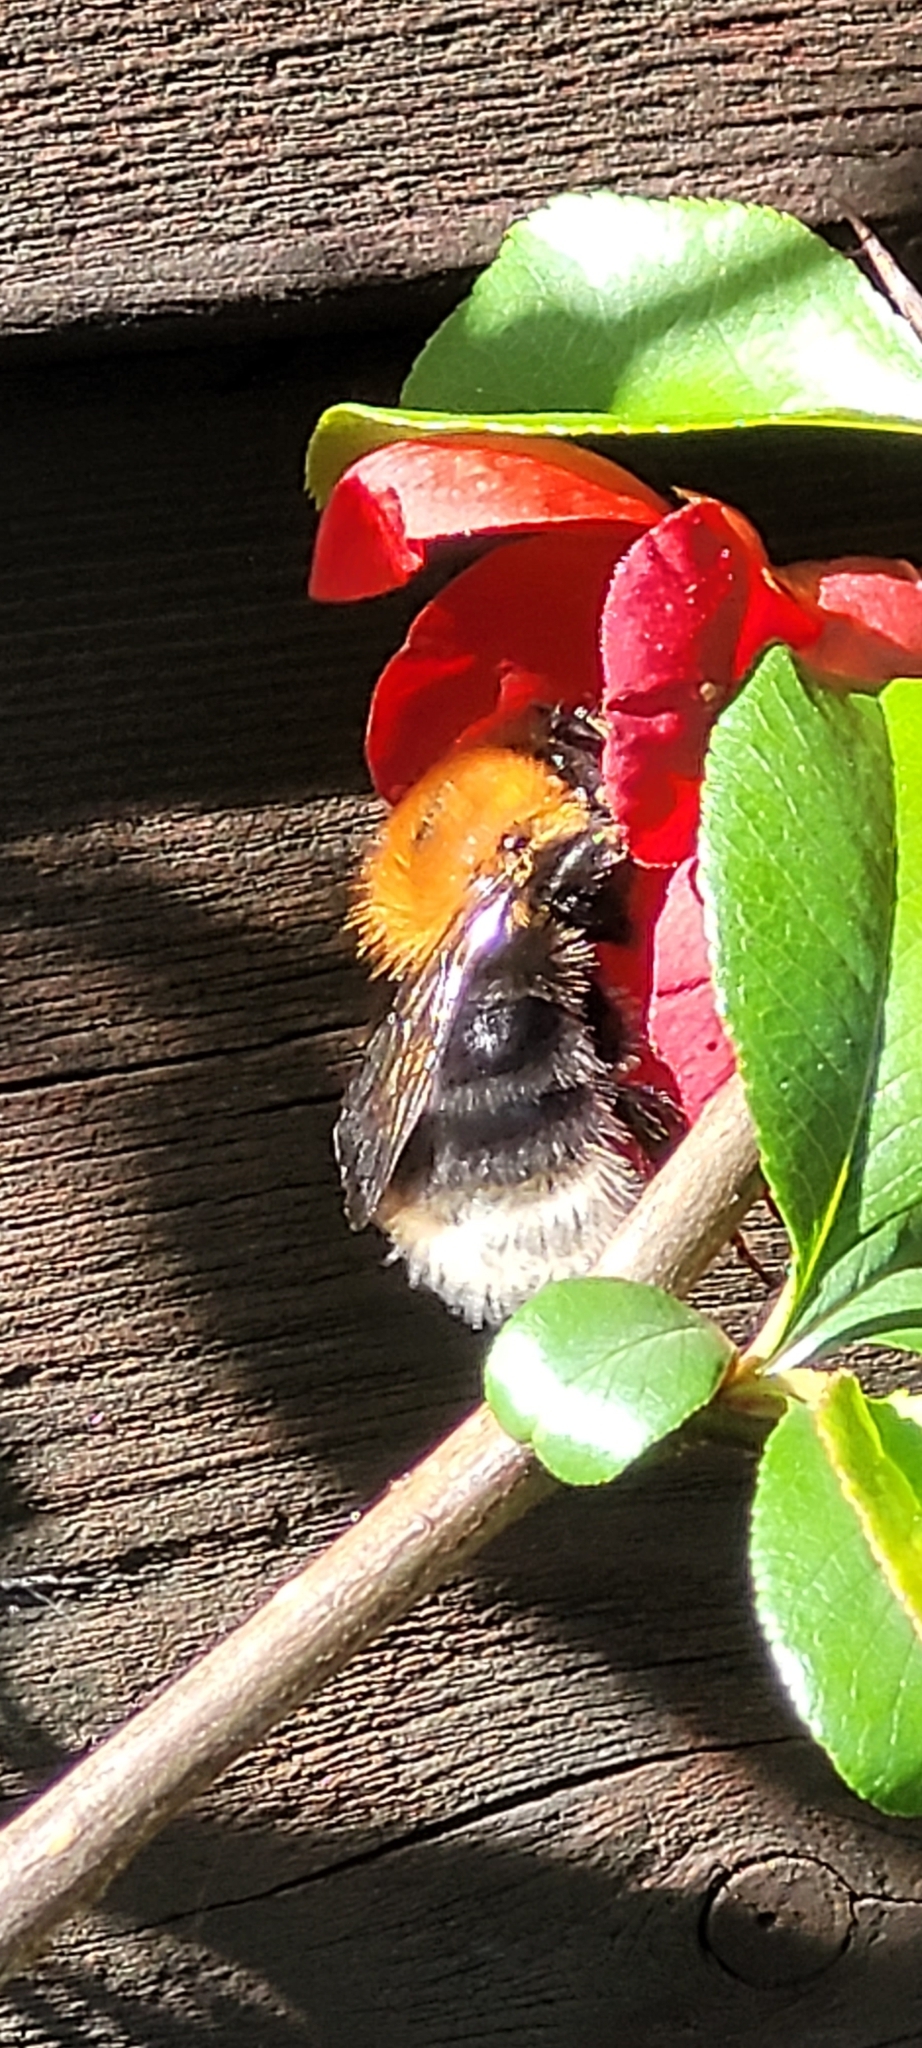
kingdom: Animalia
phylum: Arthropoda
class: Insecta
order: Hymenoptera
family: Apidae
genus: Bombus
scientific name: Bombus hypnorum
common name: New garden bumblebee
